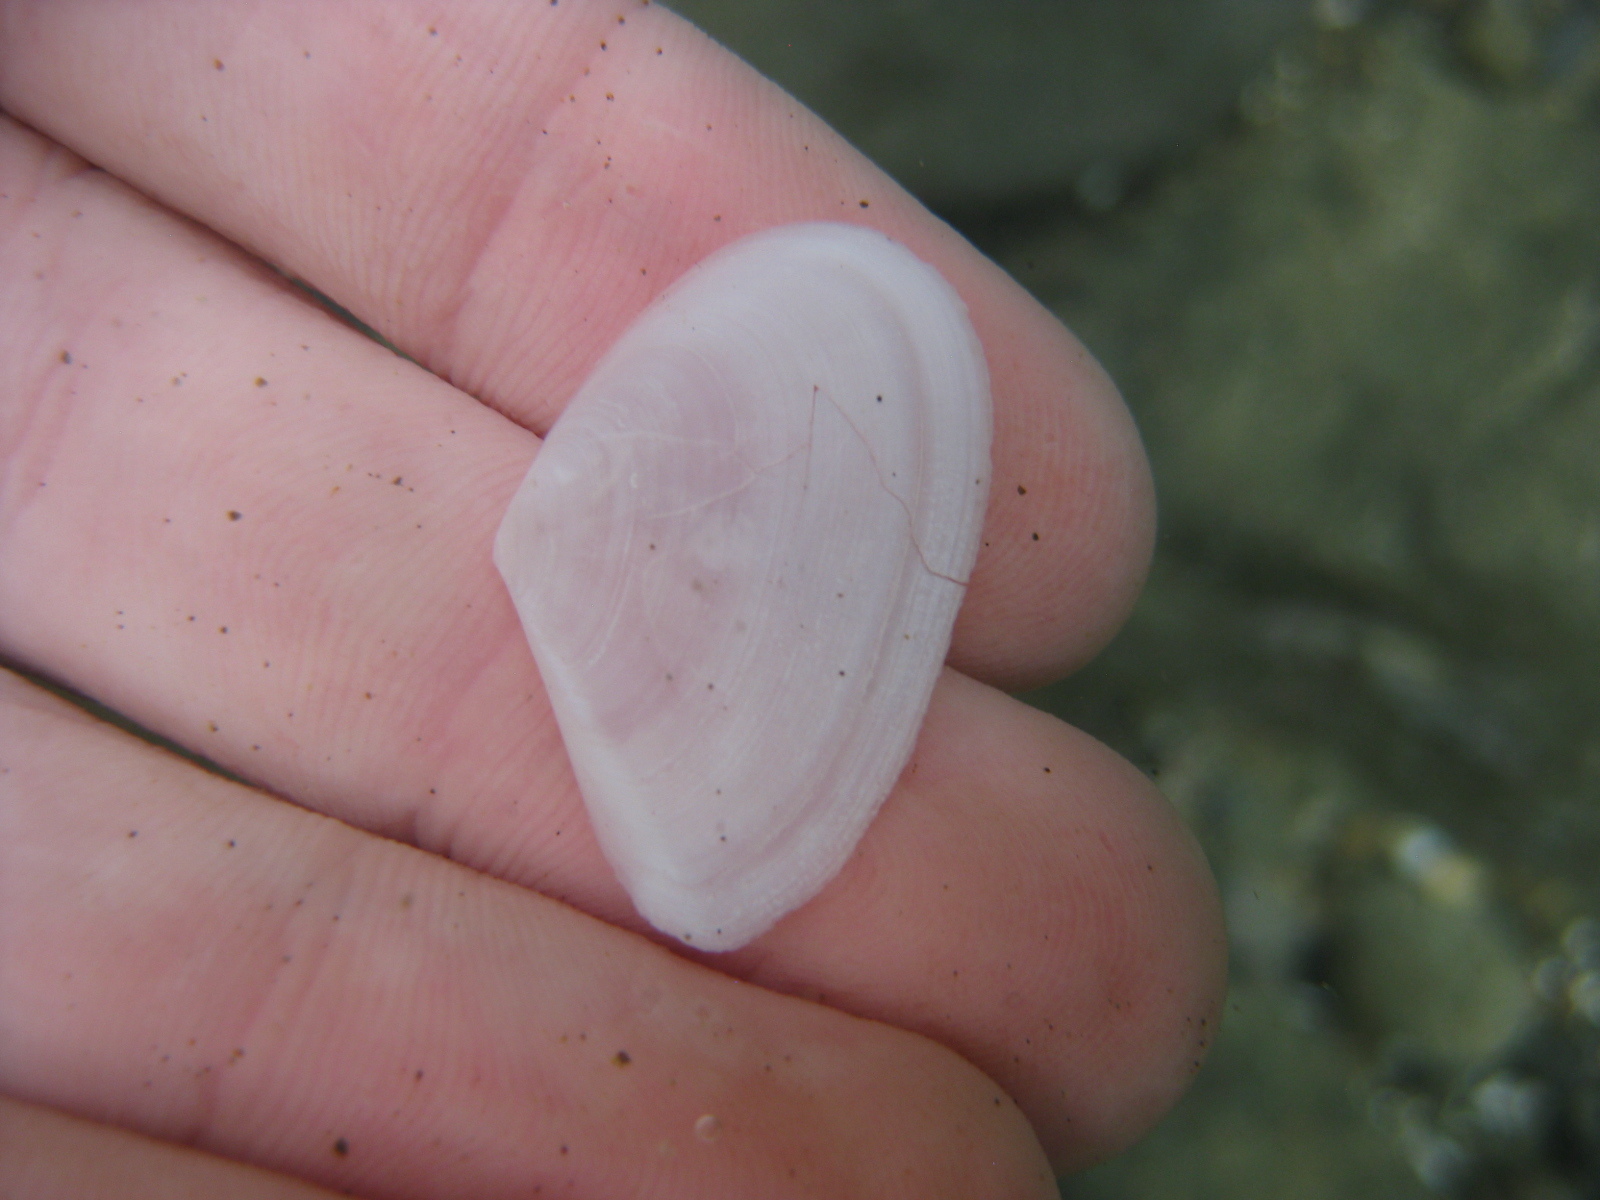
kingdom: Animalia
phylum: Mollusca
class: Bivalvia
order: Cardiida
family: Tellinidae
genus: Bartschicoma
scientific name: Bartschicoma edgari
